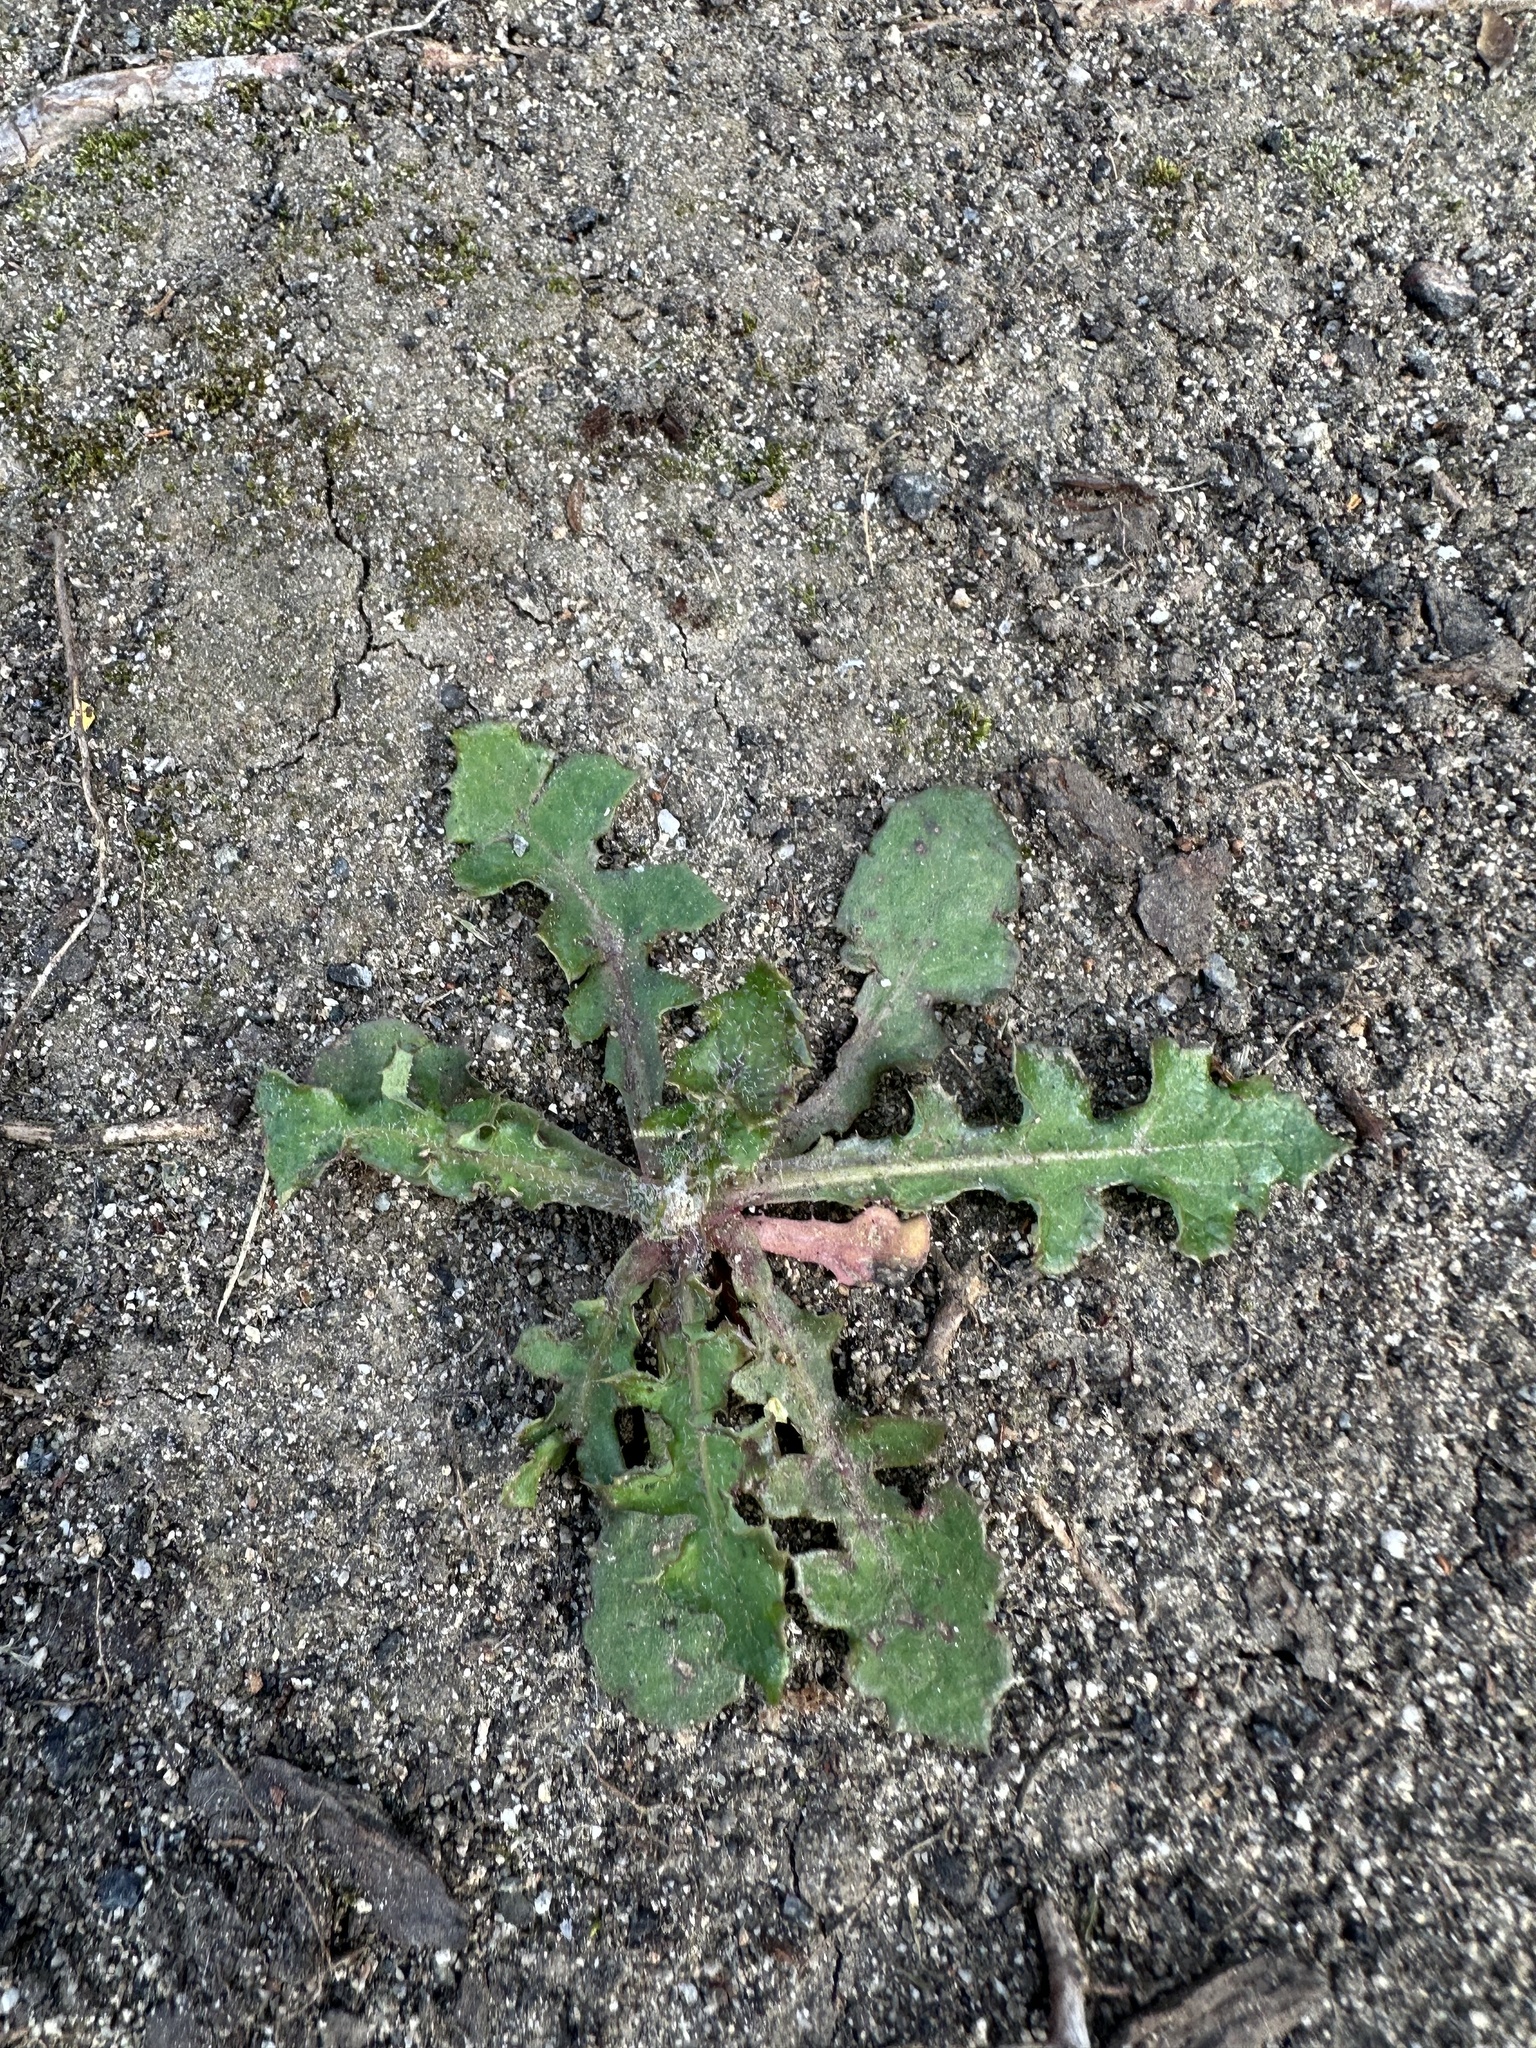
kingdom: Plantae
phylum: Tracheophyta
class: Magnoliopsida
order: Asterales
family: Asteraceae
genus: Sonchus
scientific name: Sonchus oleraceus
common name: Common sowthistle
